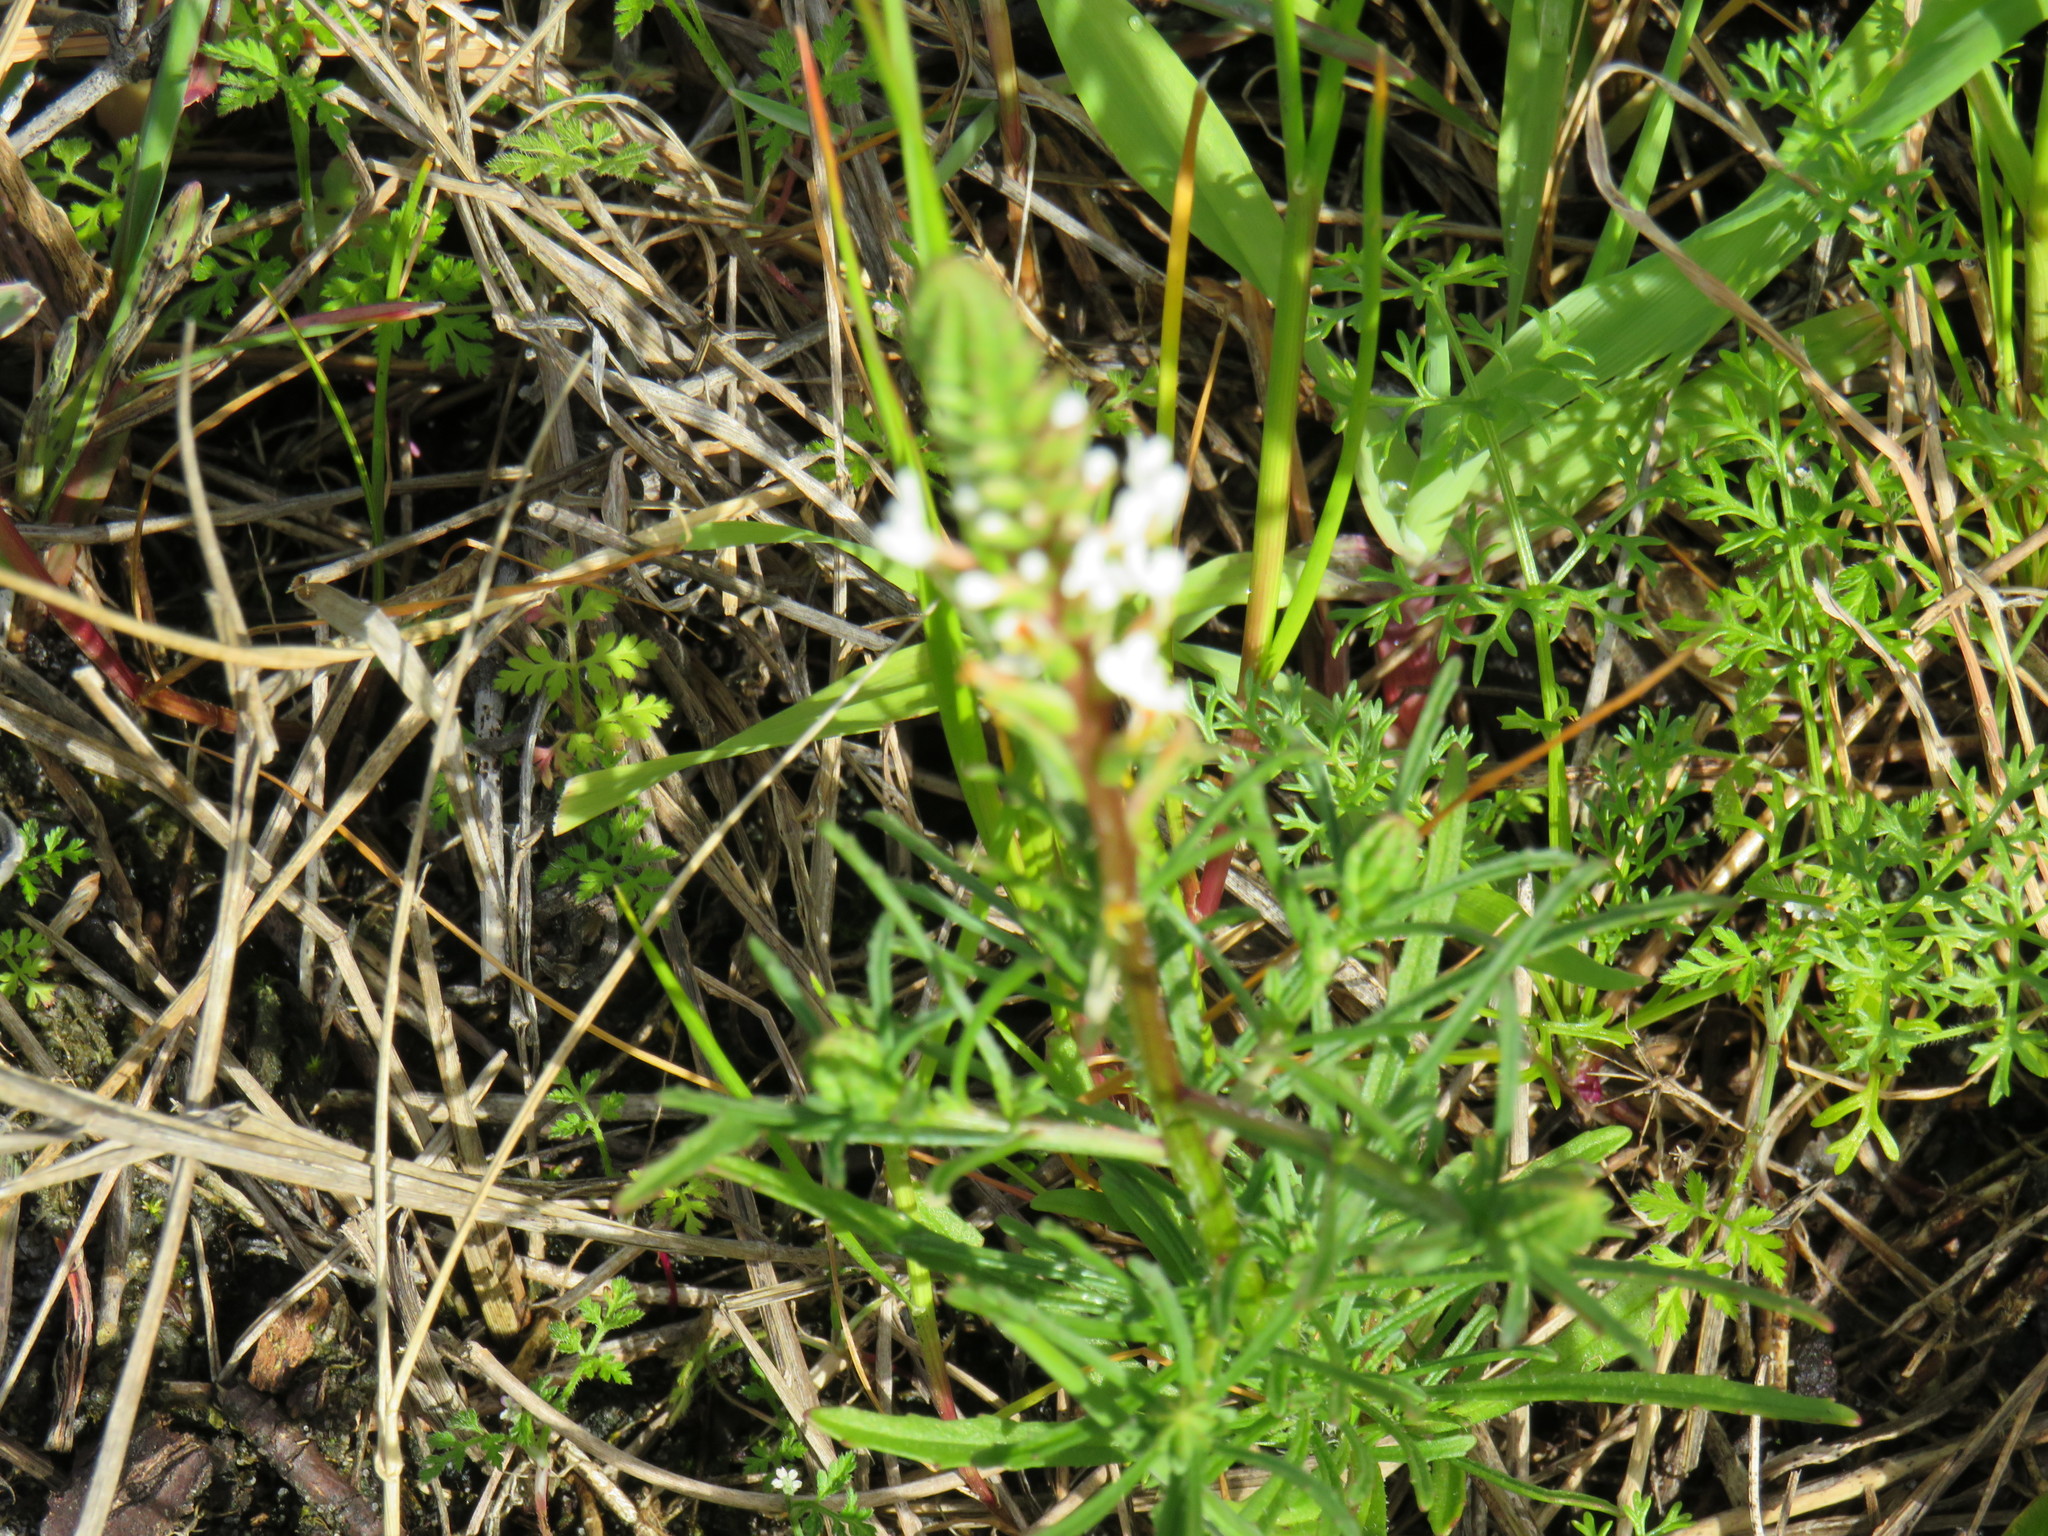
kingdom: Plantae
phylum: Tracheophyta
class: Magnoliopsida
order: Lamiales
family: Scrophulariaceae
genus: Hebenstretia
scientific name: Hebenstretia repens
